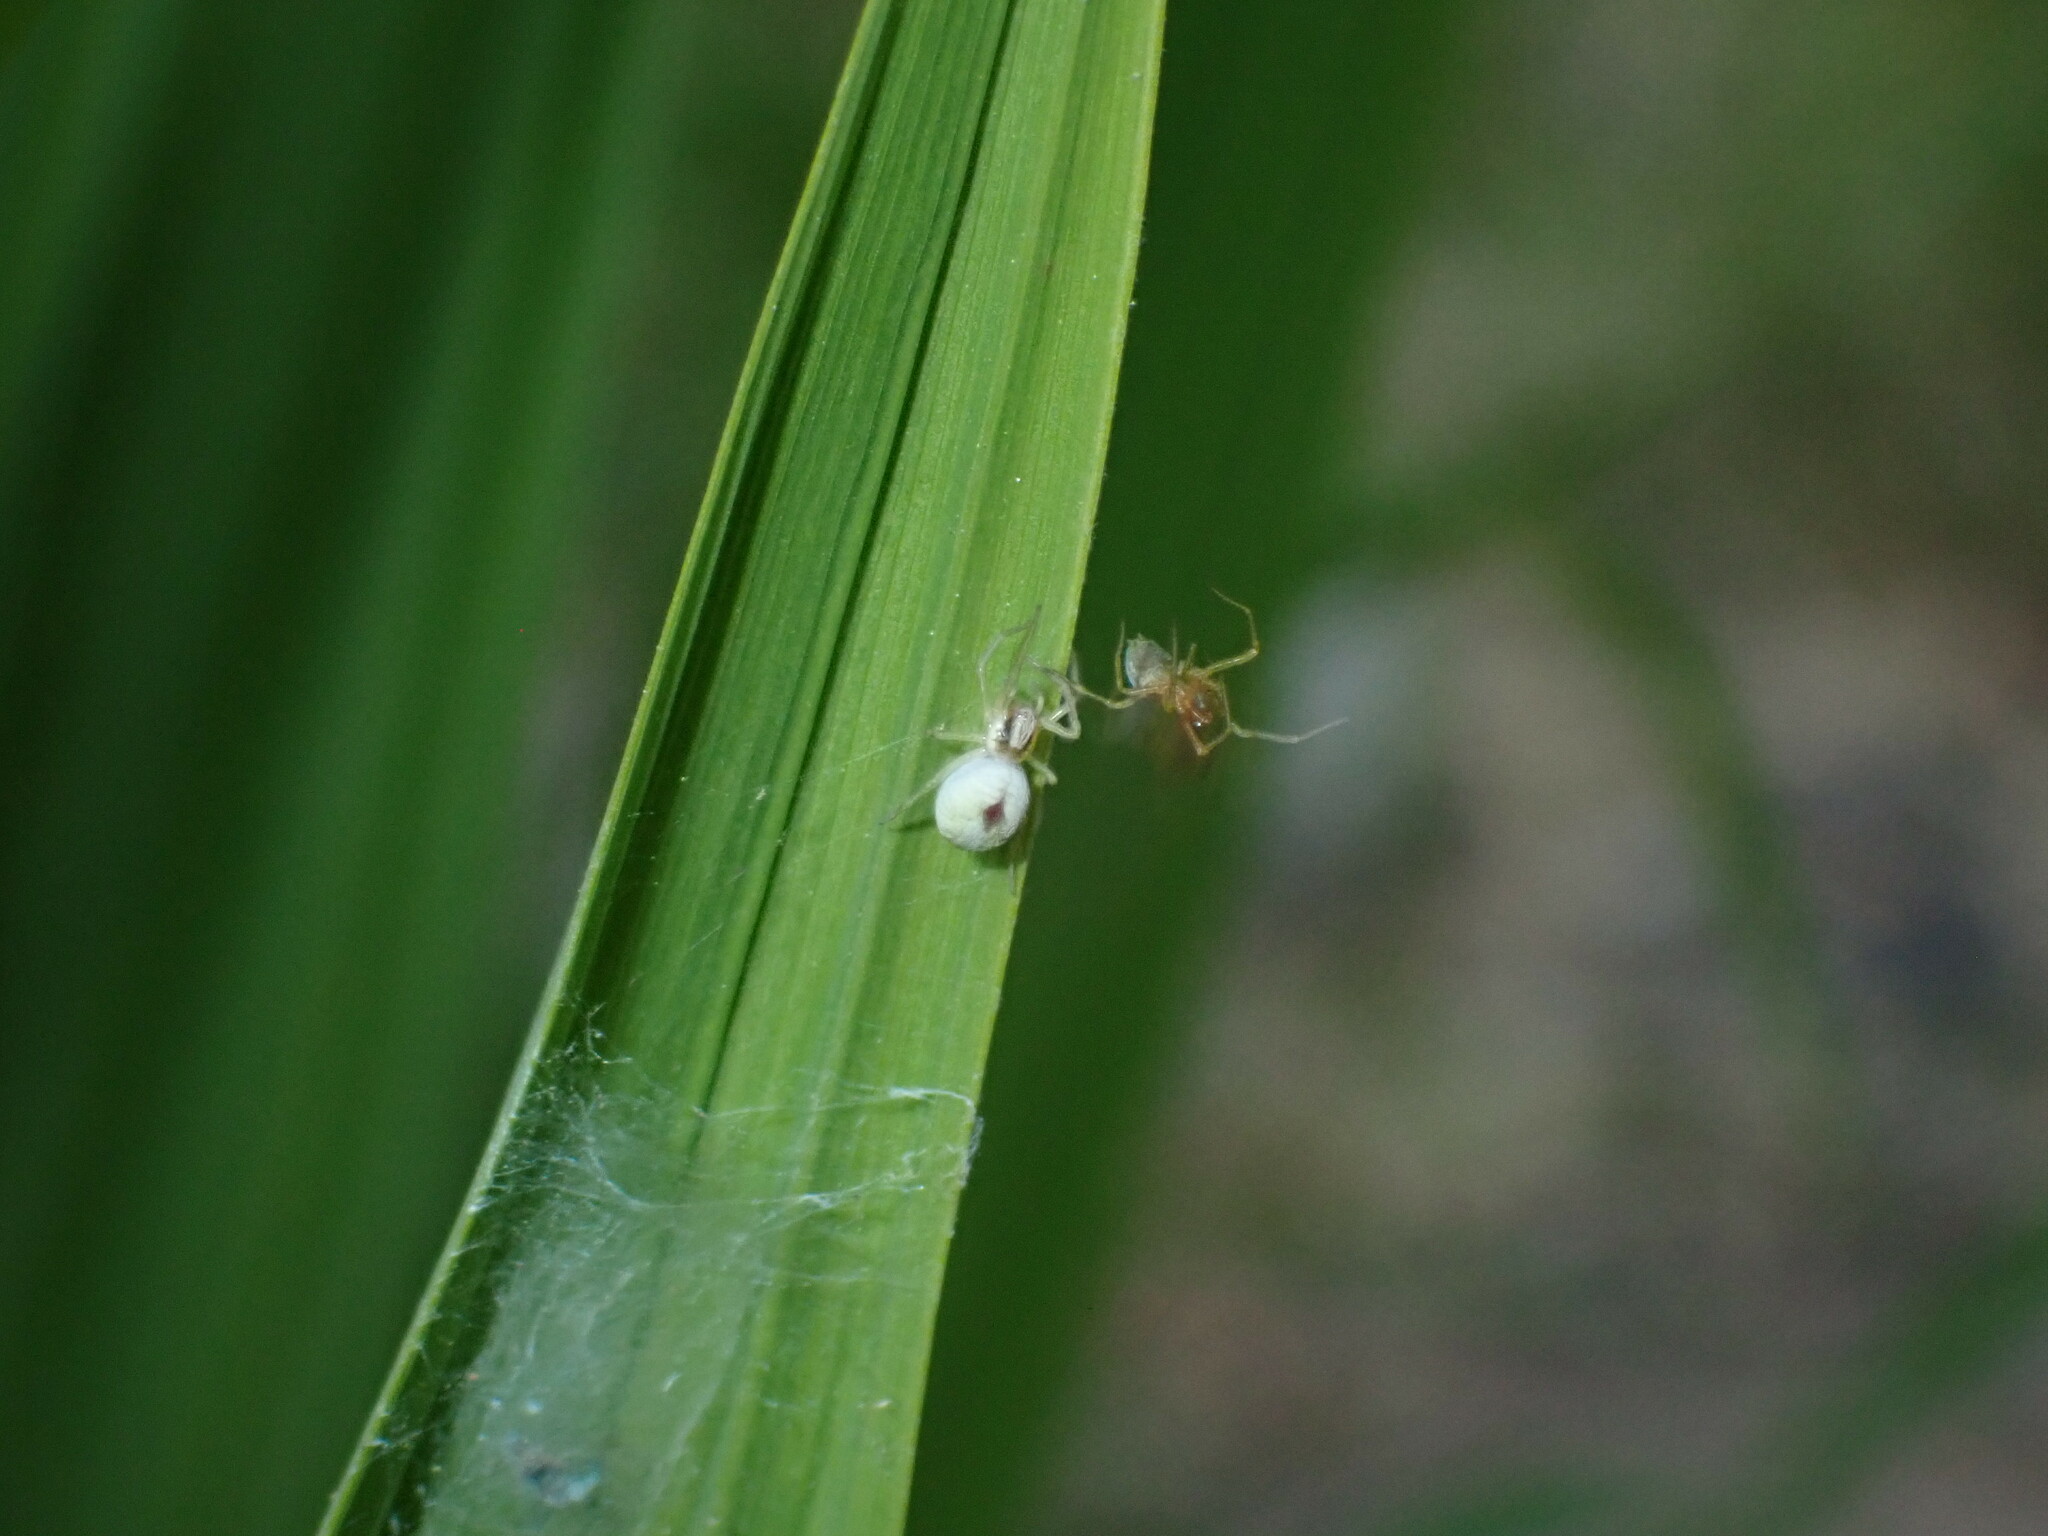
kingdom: Animalia
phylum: Arthropoda
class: Arachnida
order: Araneae
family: Dictynidae
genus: Nigma
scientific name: Nigma puella
